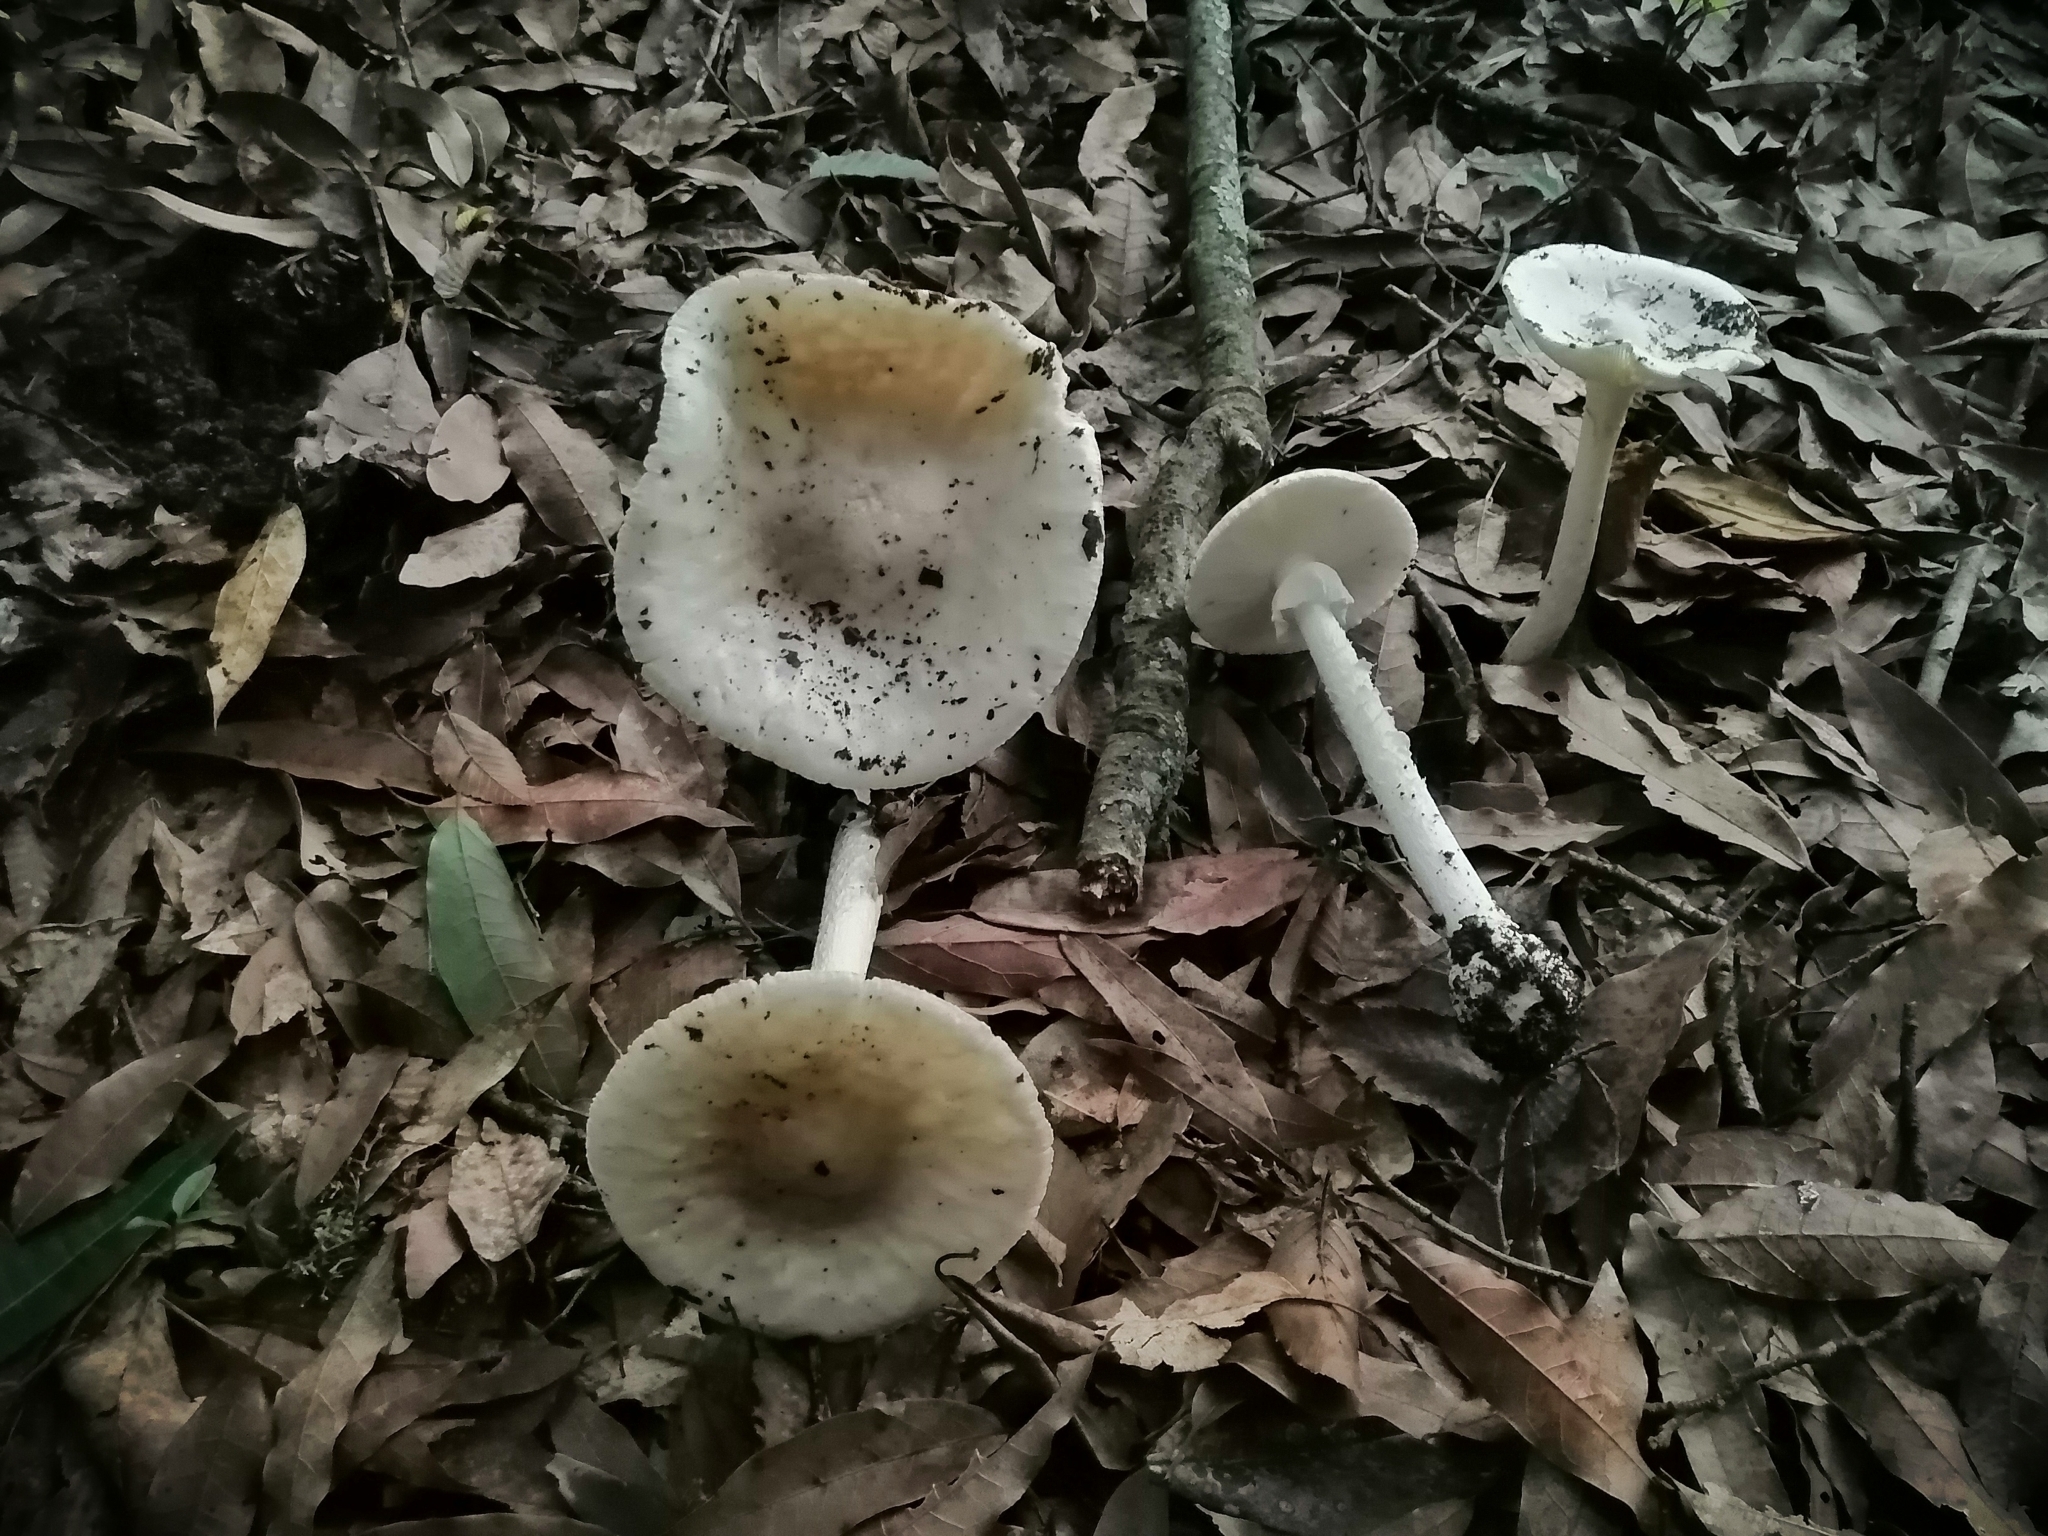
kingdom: Fungi
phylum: Basidiomycota
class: Agaricomycetes
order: Agaricales
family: Amanitaceae
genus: Amanita
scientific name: Amanita bisporigera
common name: Eastern north american destroying angel
